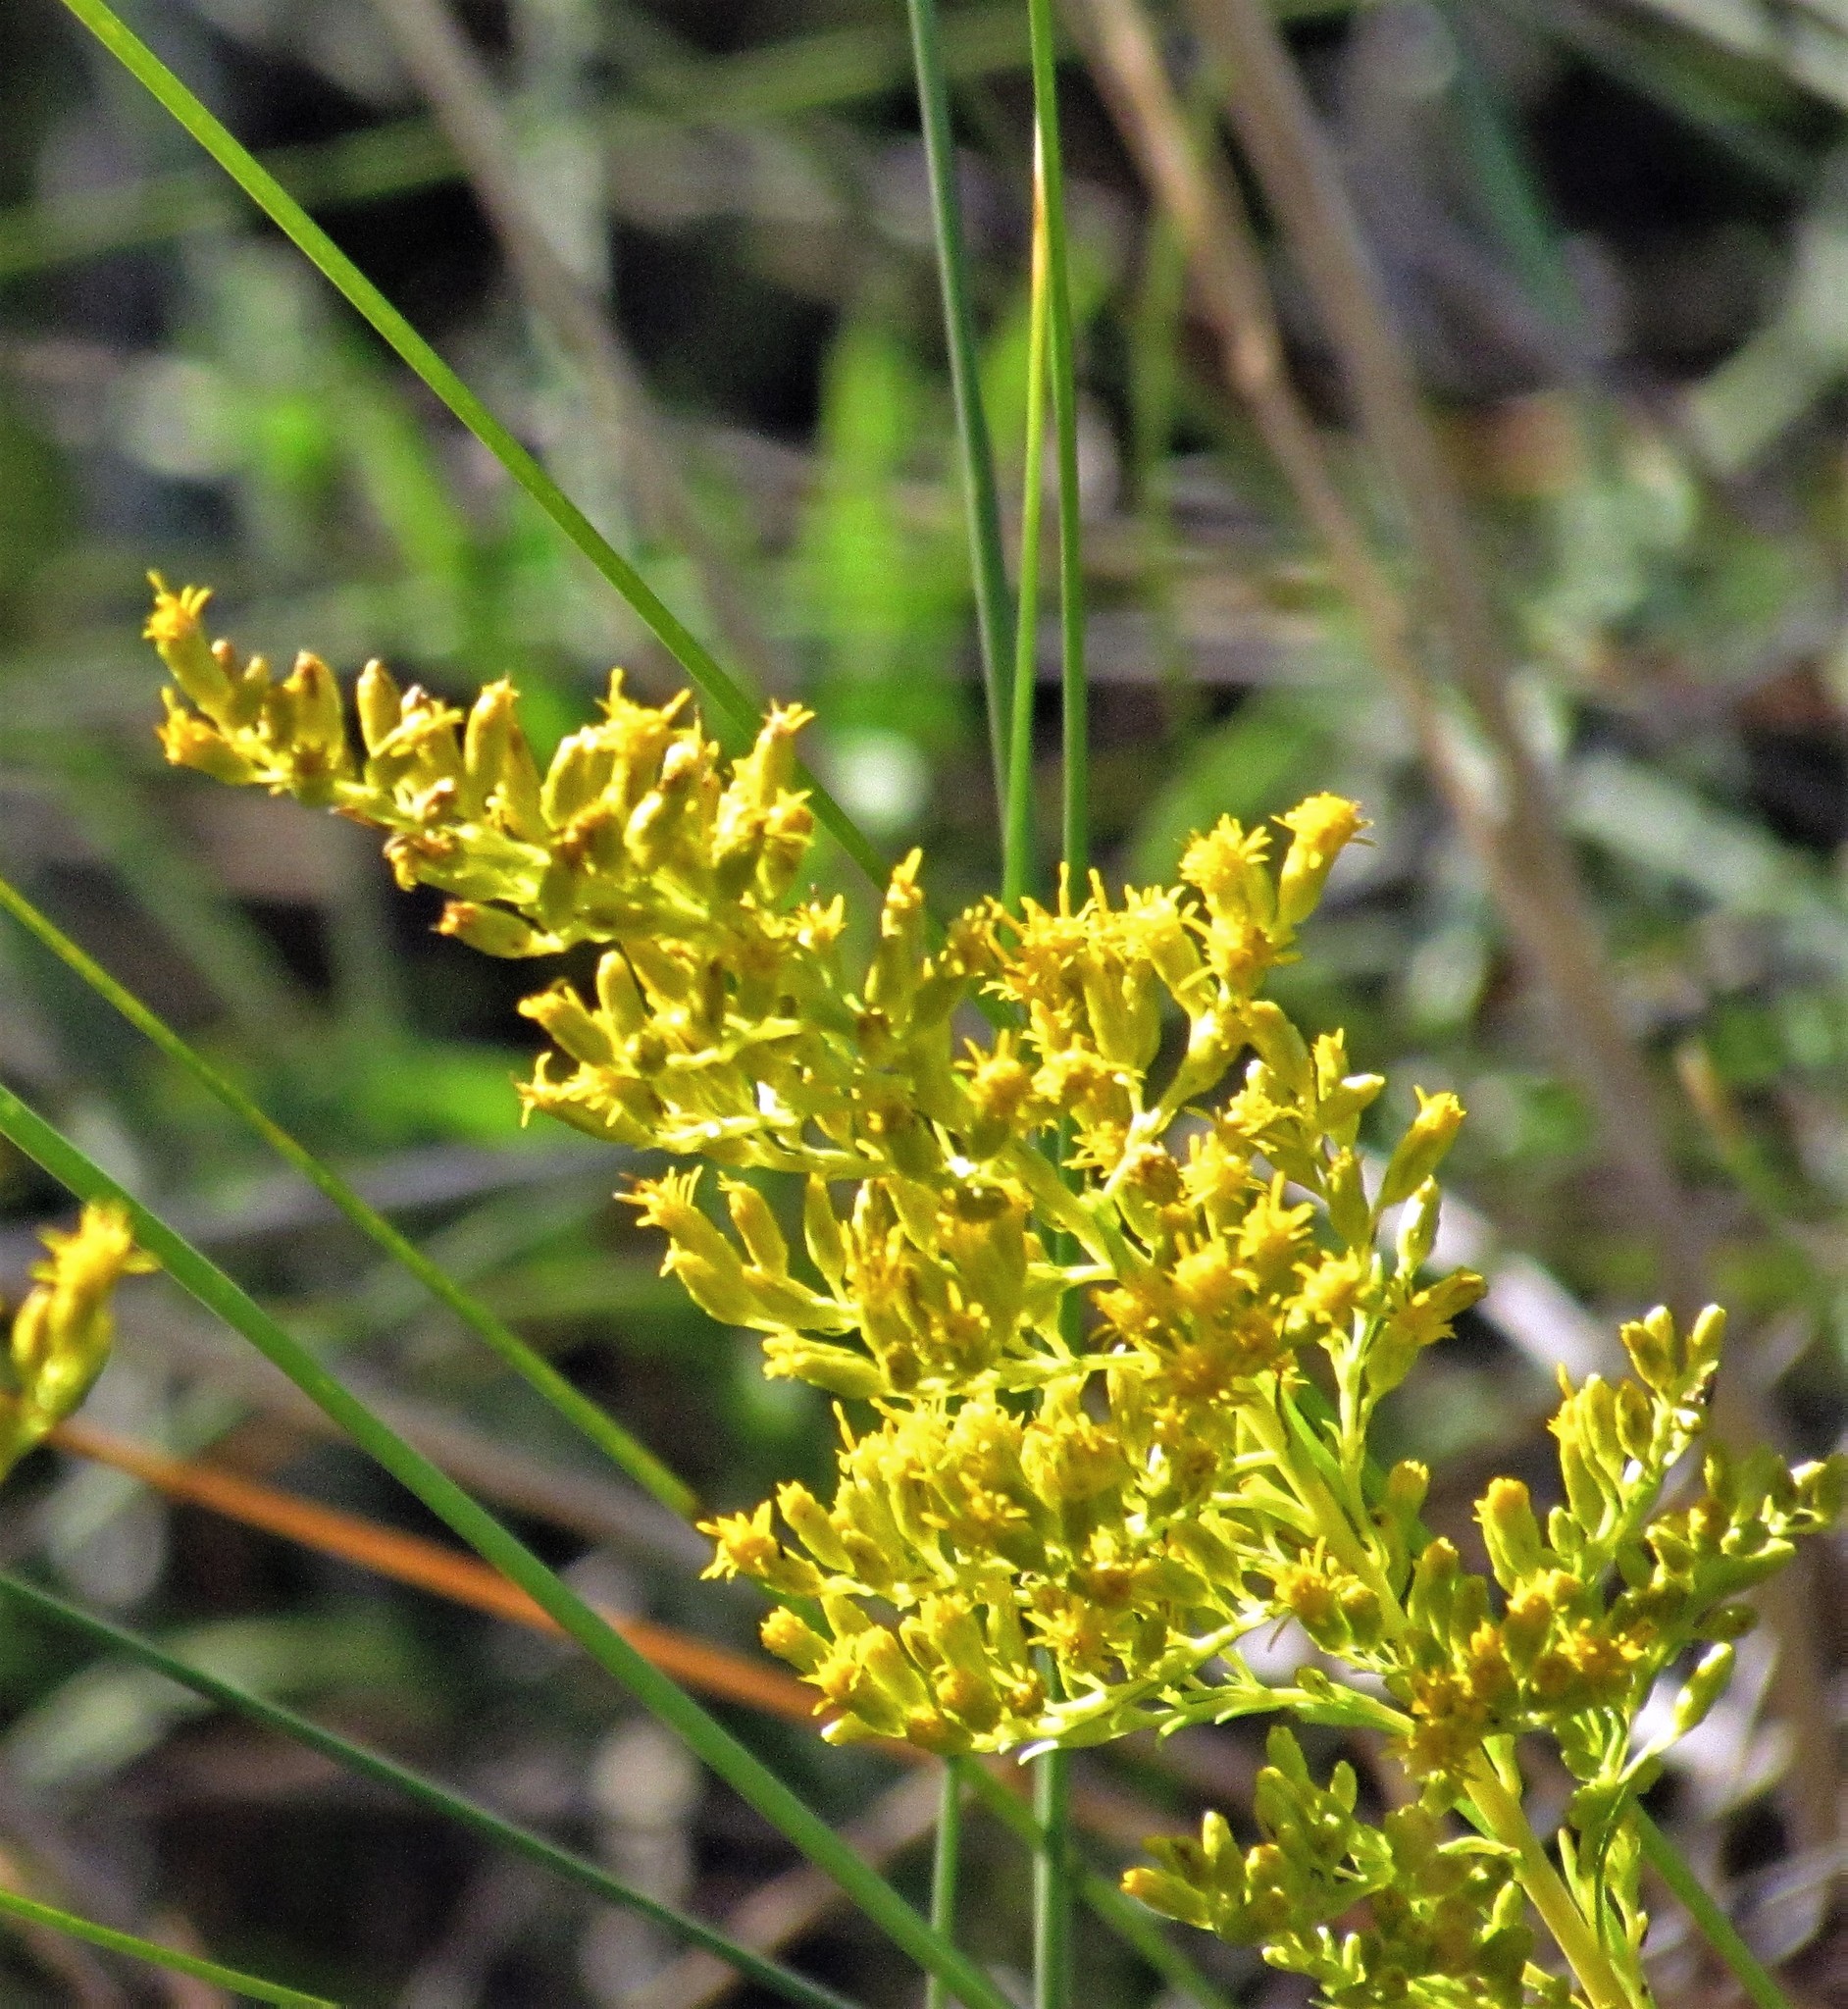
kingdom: Plantae
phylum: Tracheophyta
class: Magnoliopsida
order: Asterales
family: Asteraceae
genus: Solidago
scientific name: Solidago chilensis
